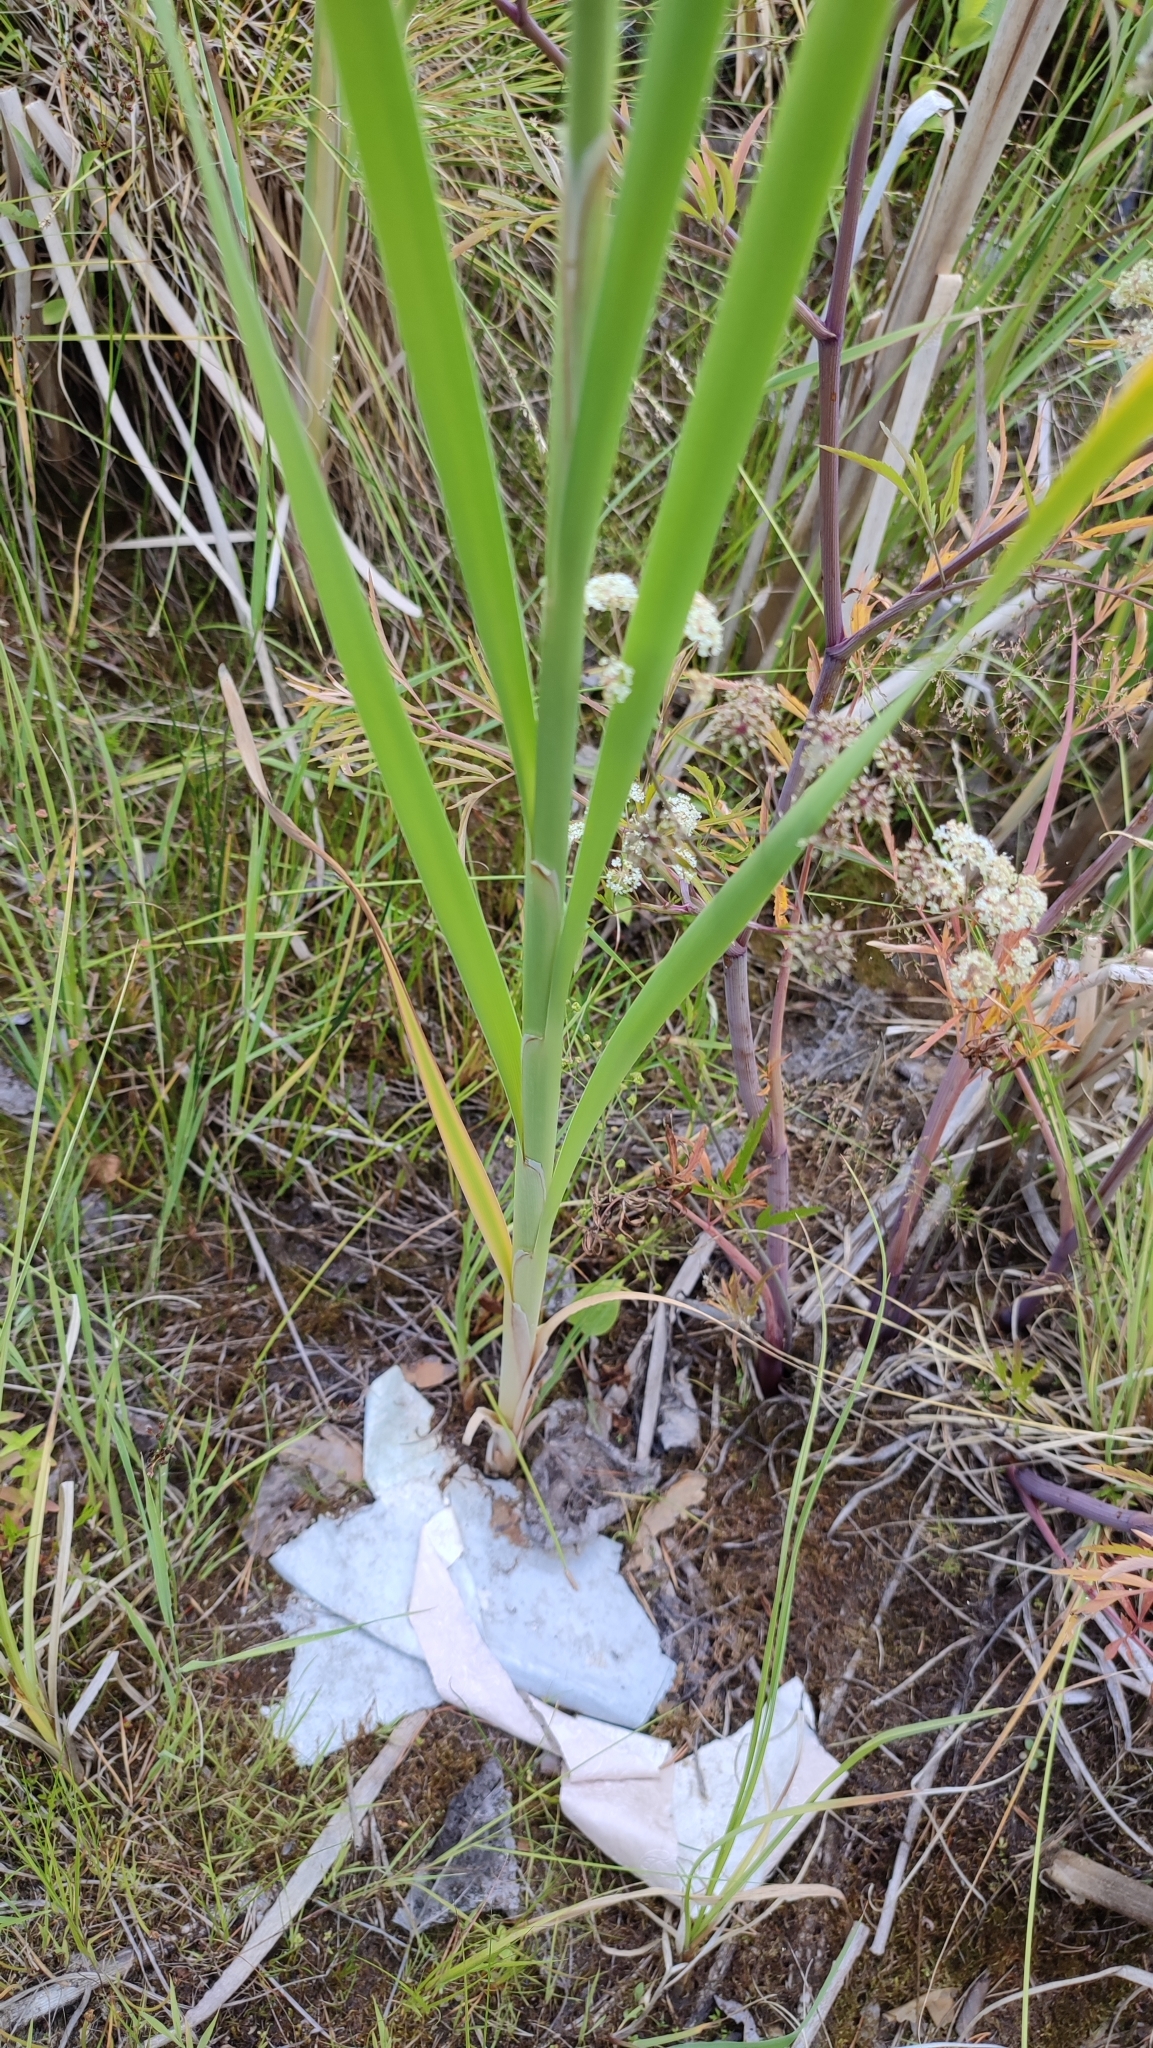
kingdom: Plantae
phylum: Tracheophyta
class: Liliopsida
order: Poales
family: Typhaceae
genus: Typha
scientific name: Typha incana
